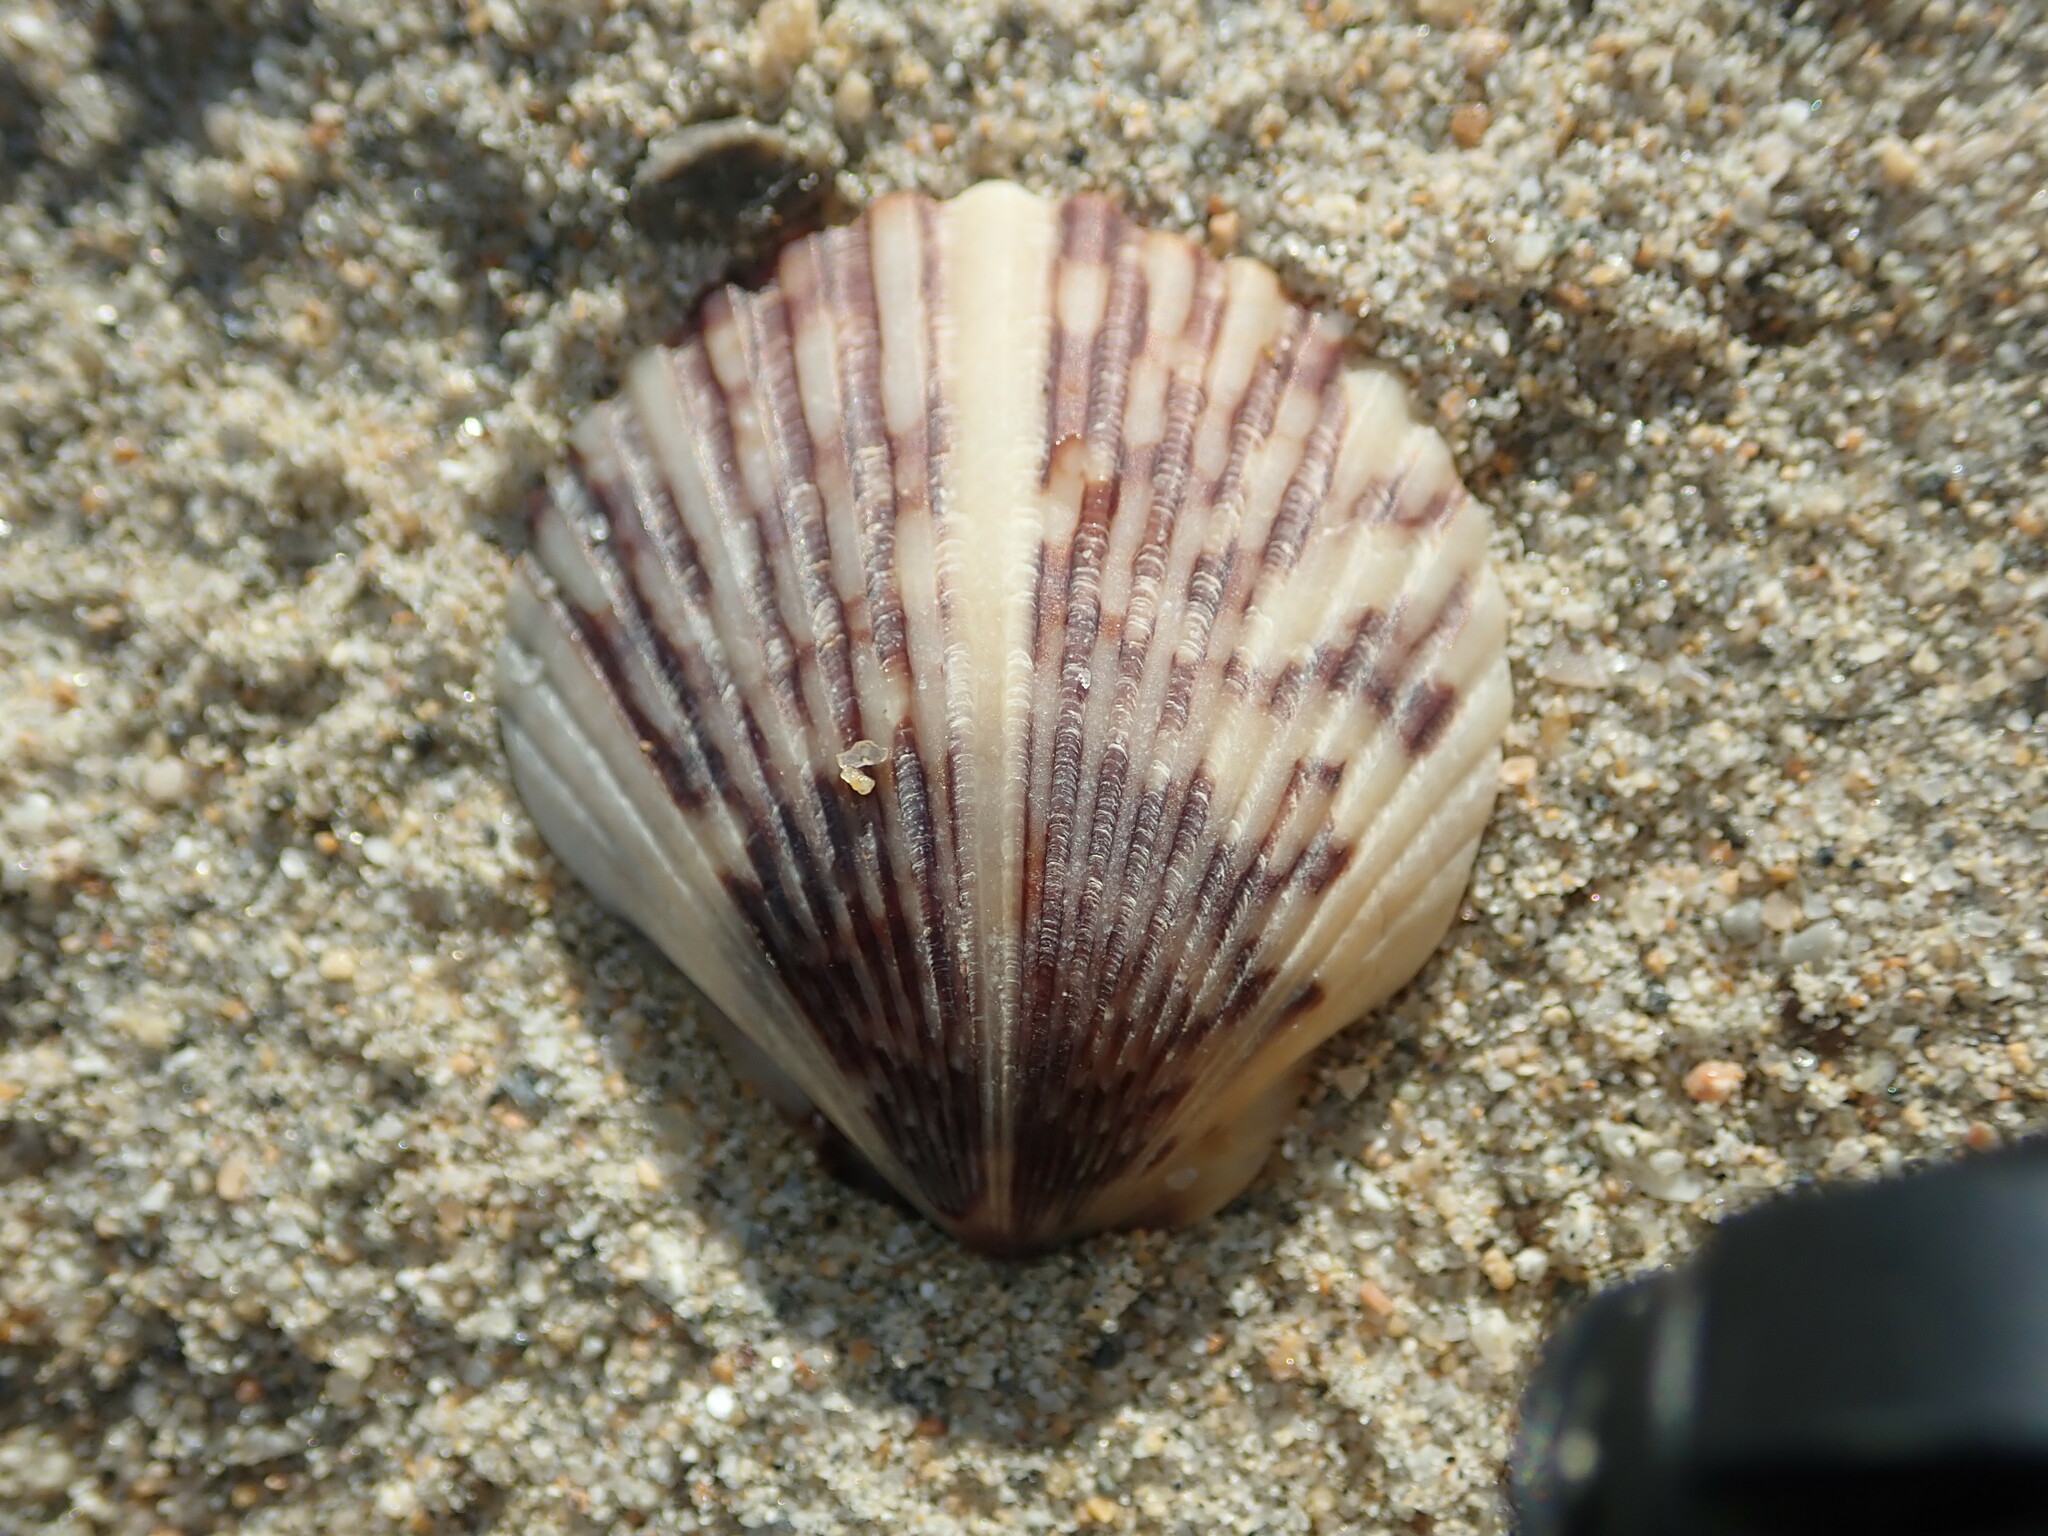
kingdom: Animalia
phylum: Mollusca
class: Bivalvia
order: Pectinida
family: Pectinidae
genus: Argopecten
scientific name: Argopecten ventricosus
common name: Catarina scallop
